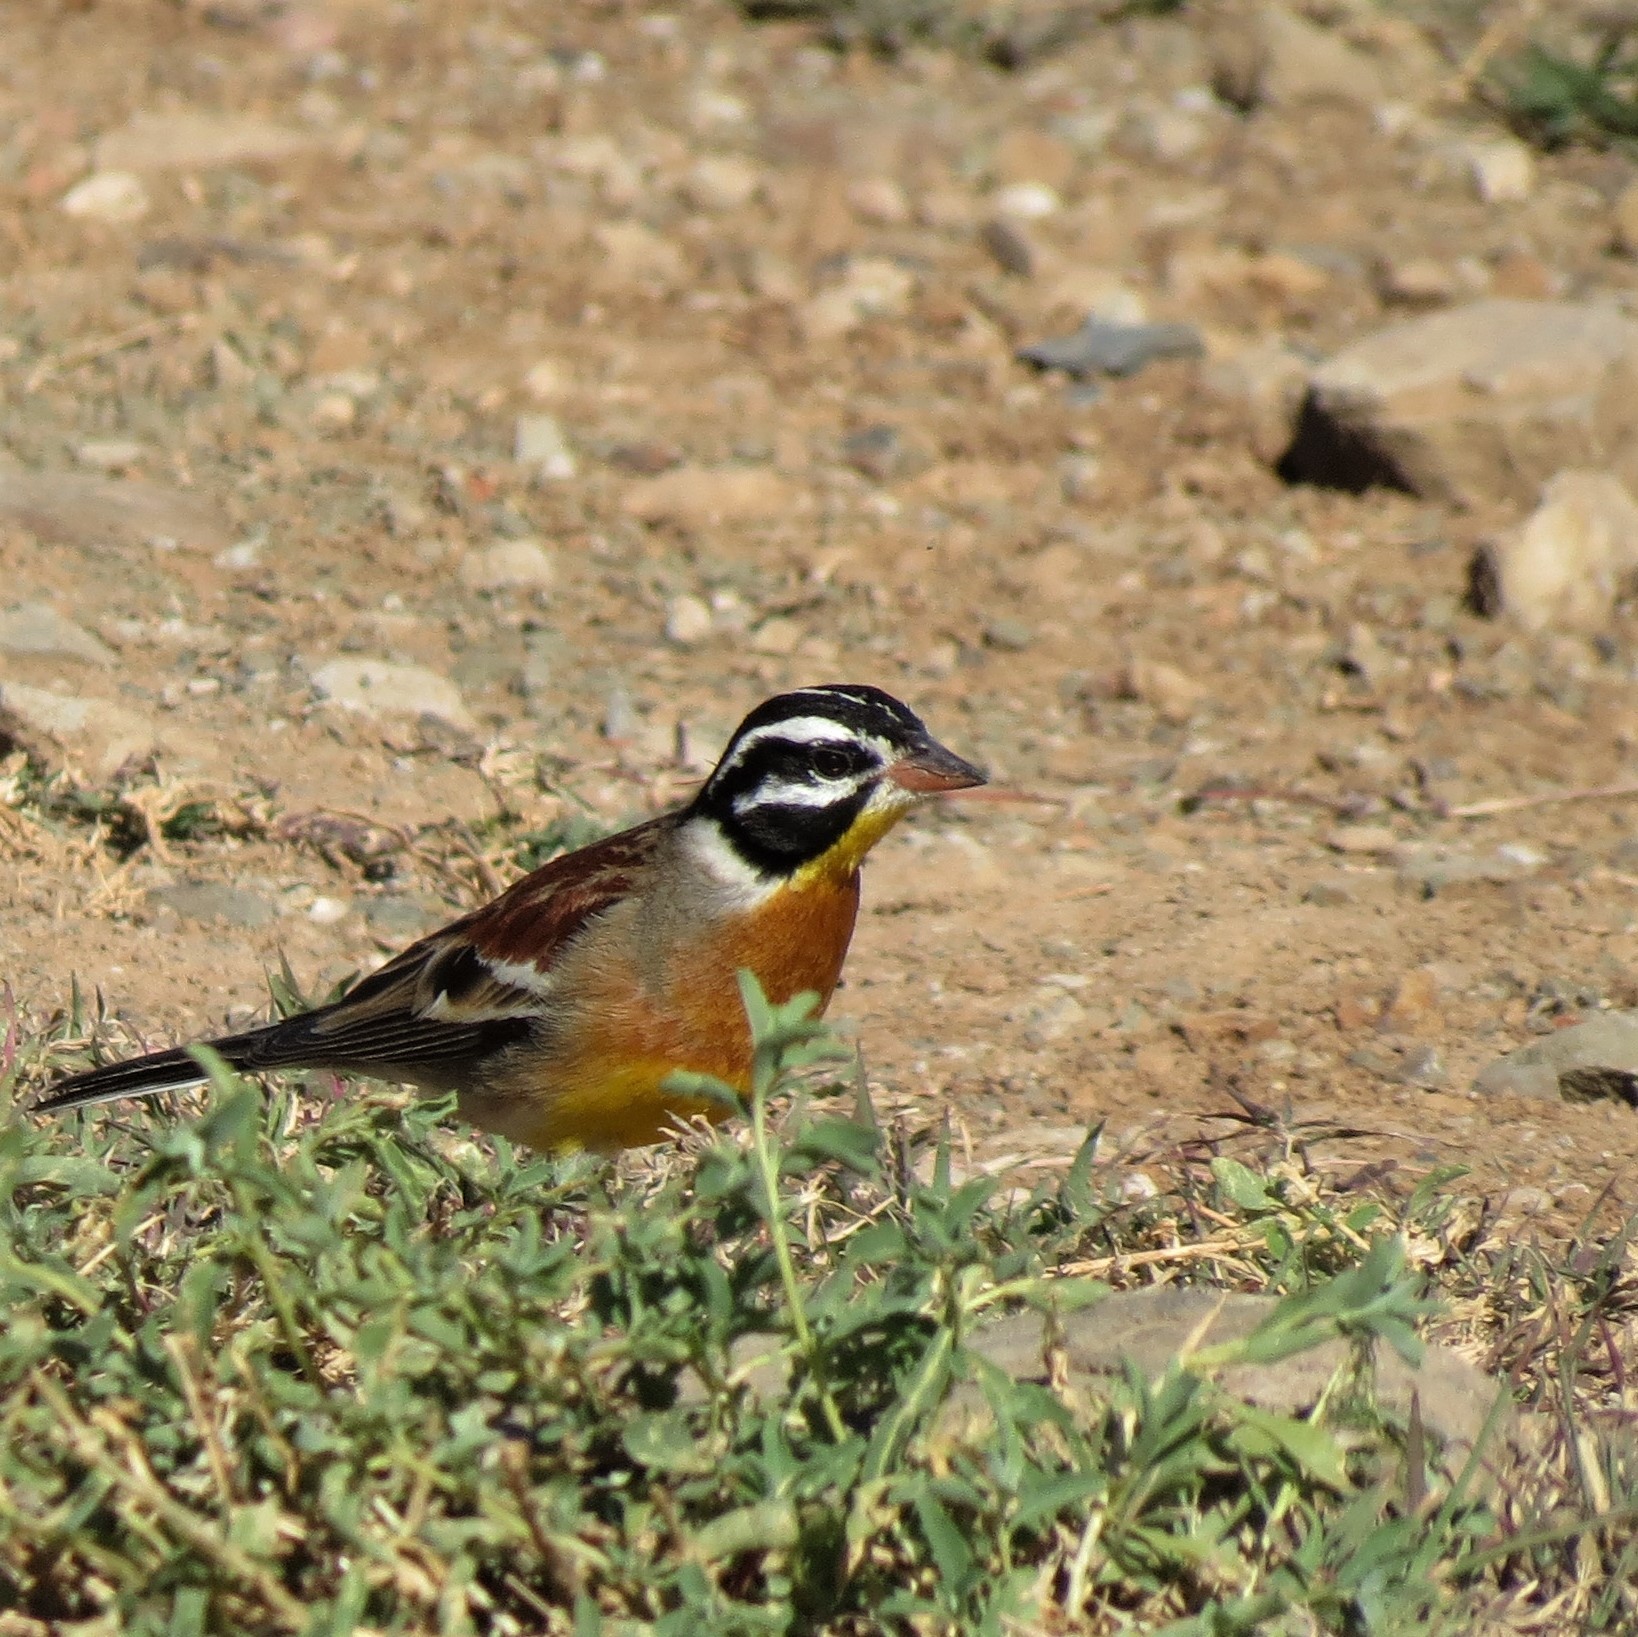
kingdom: Animalia
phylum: Chordata
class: Aves
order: Passeriformes
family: Emberizidae
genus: Emberiza
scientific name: Emberiza flaviventris
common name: Golden-breasted bunting
